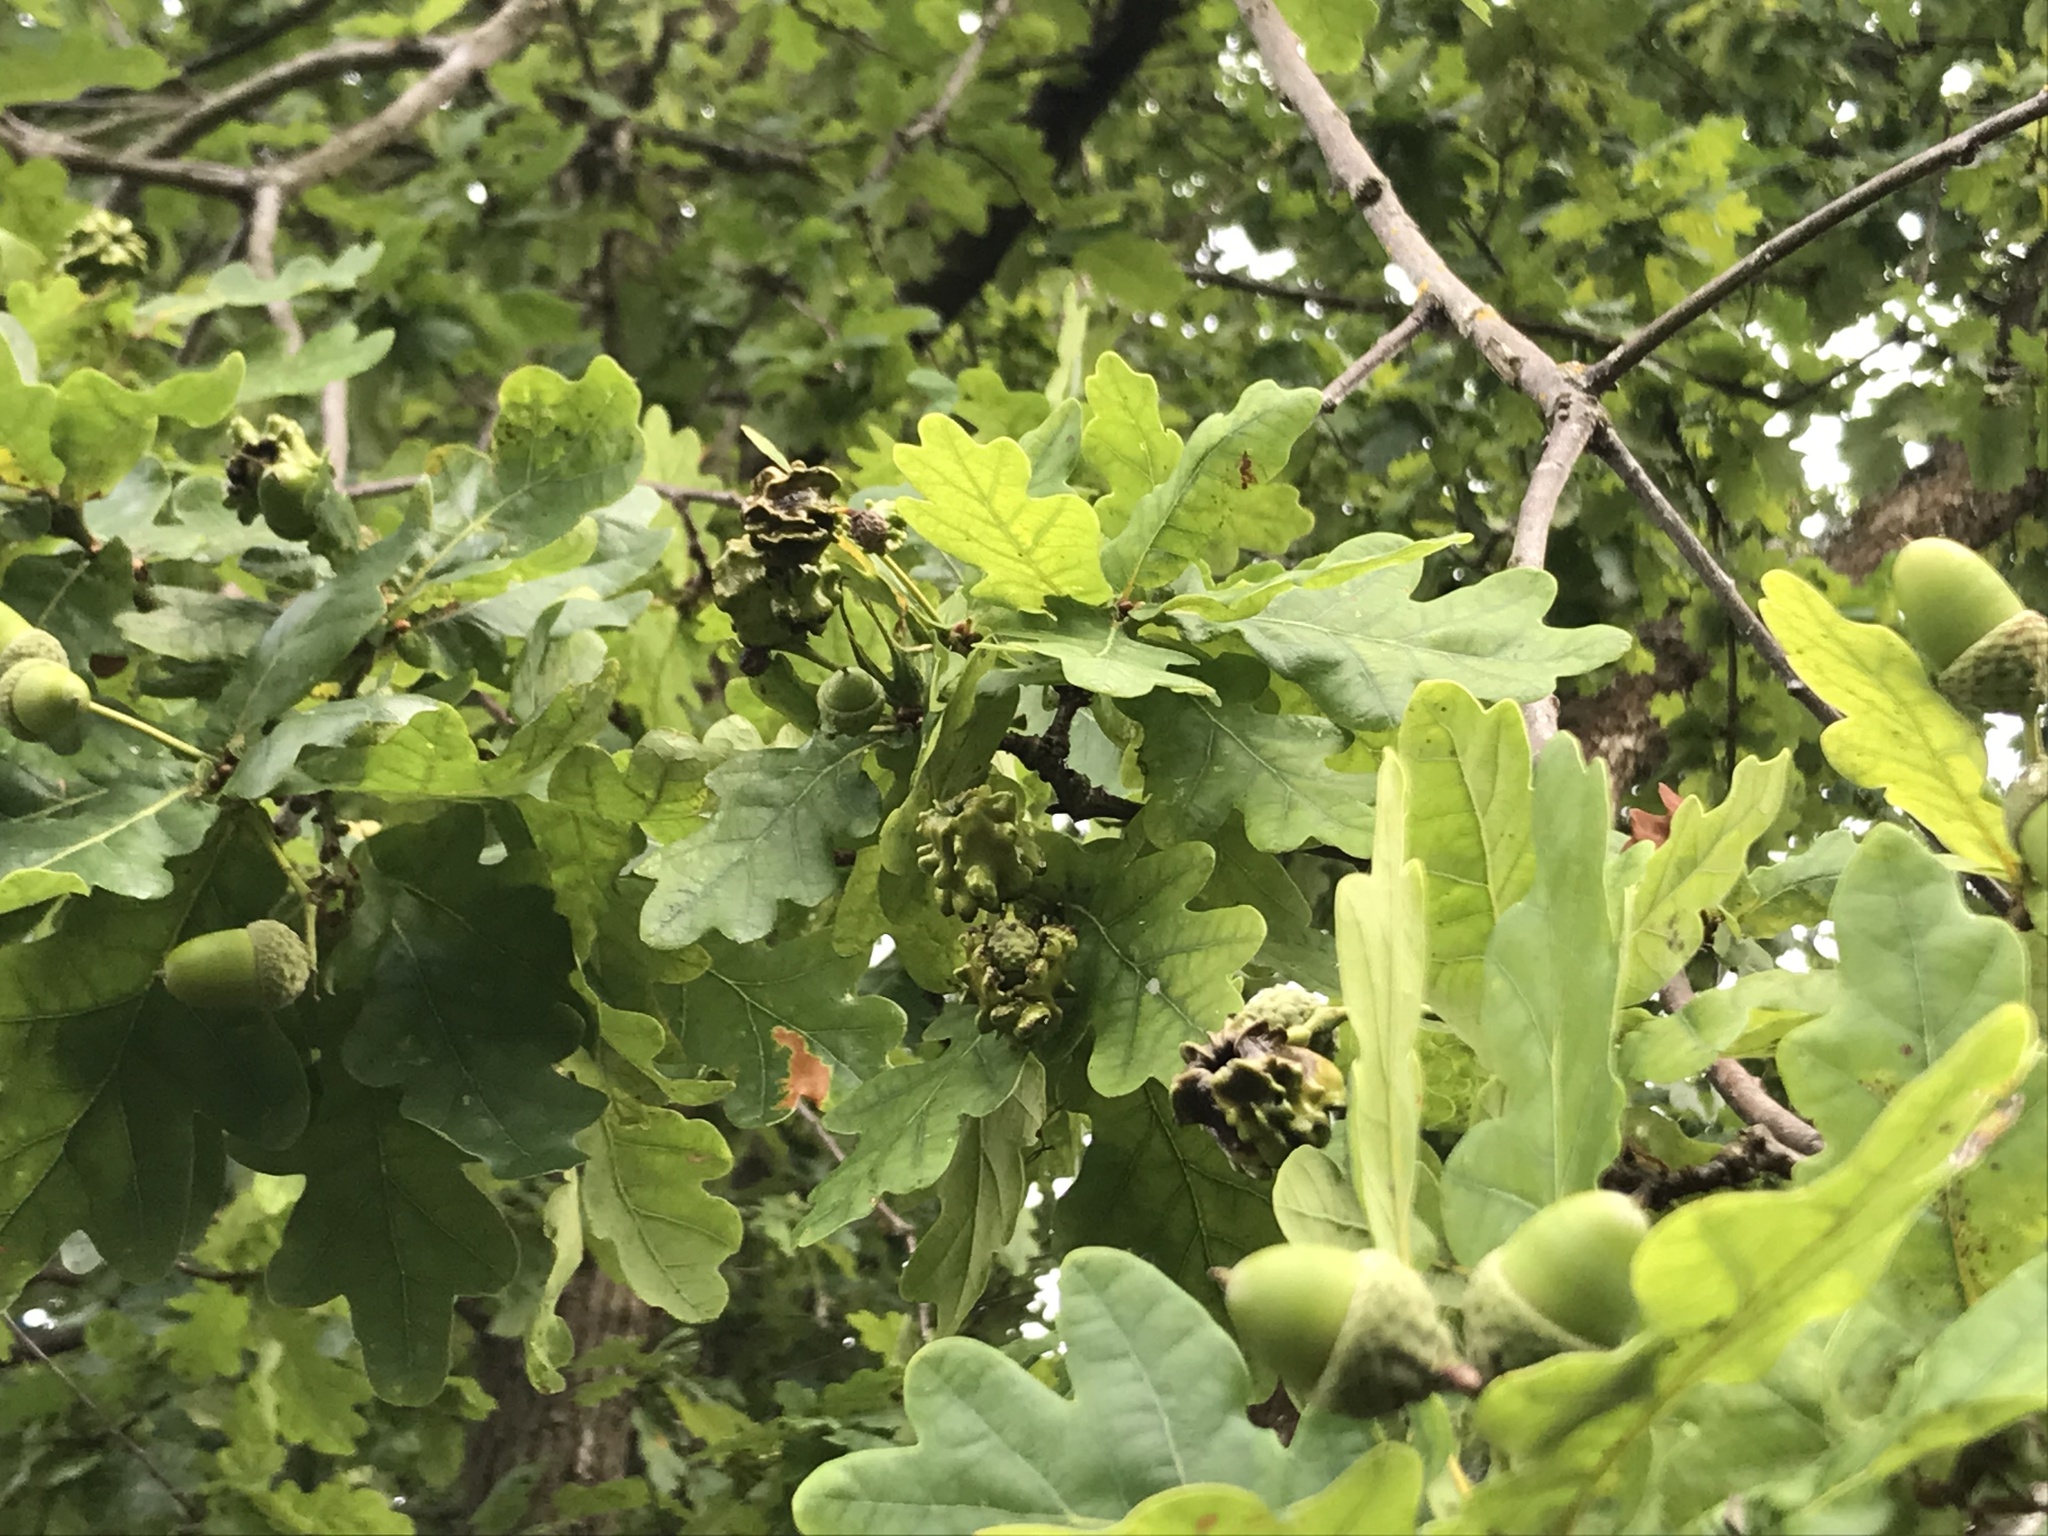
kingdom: Animalia
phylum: Arthropoda
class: Insecta
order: Hymenoptera
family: Cynipidae
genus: Andricus
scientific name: Andricus quercuscalicis
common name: Knopper gall
